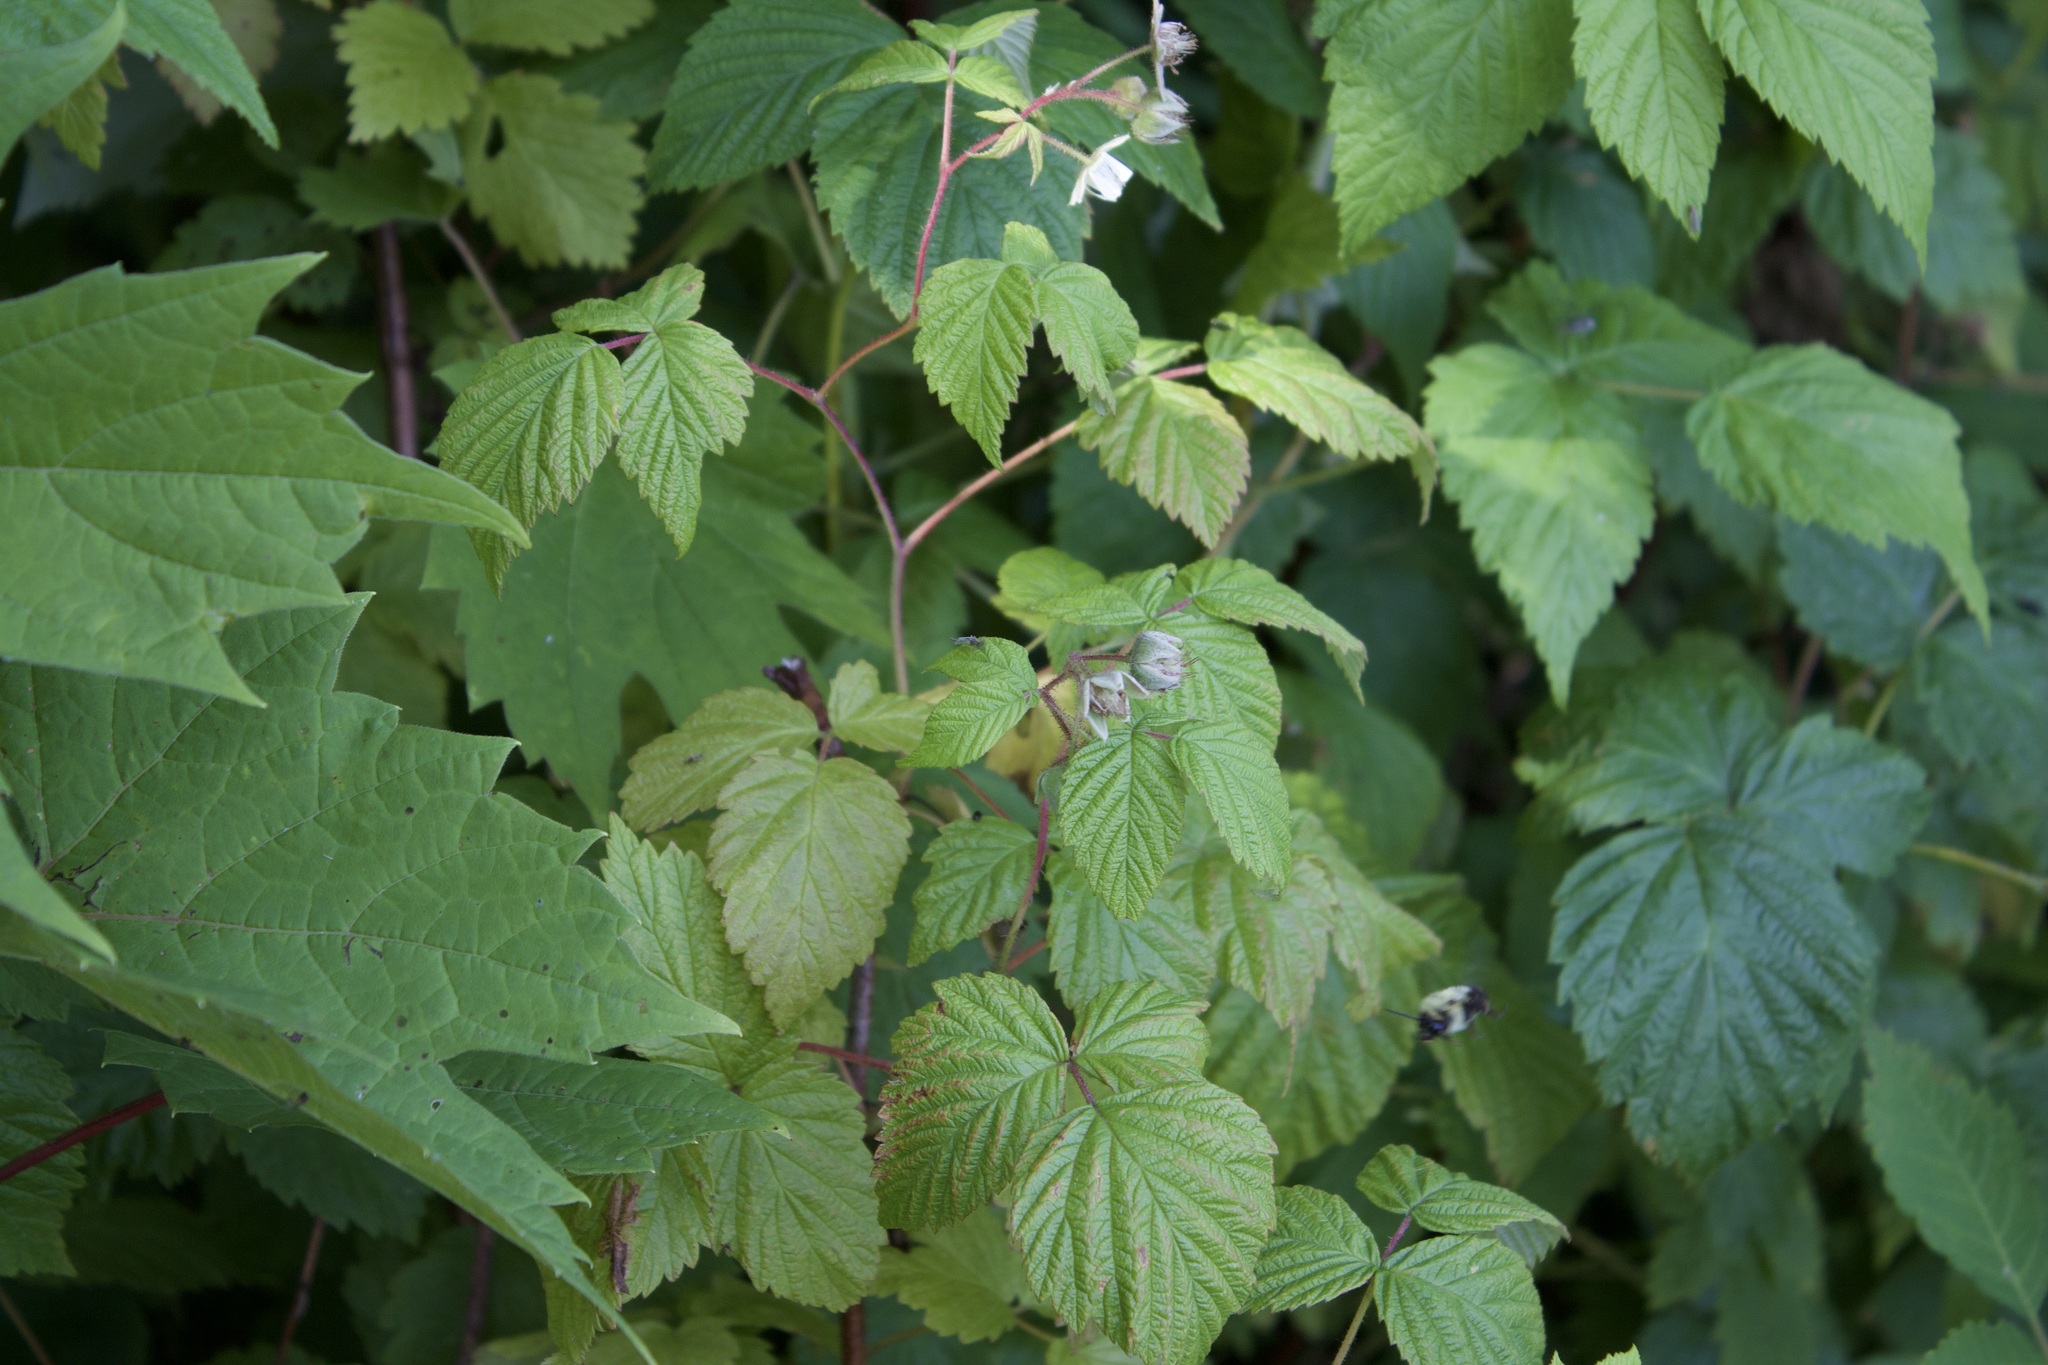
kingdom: Animalia
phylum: Arthropoda
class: Insecta
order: Hymenoptera
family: Apidae
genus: Bombus
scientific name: Bombus bimaculatus
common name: Two-spotted bumble bee
